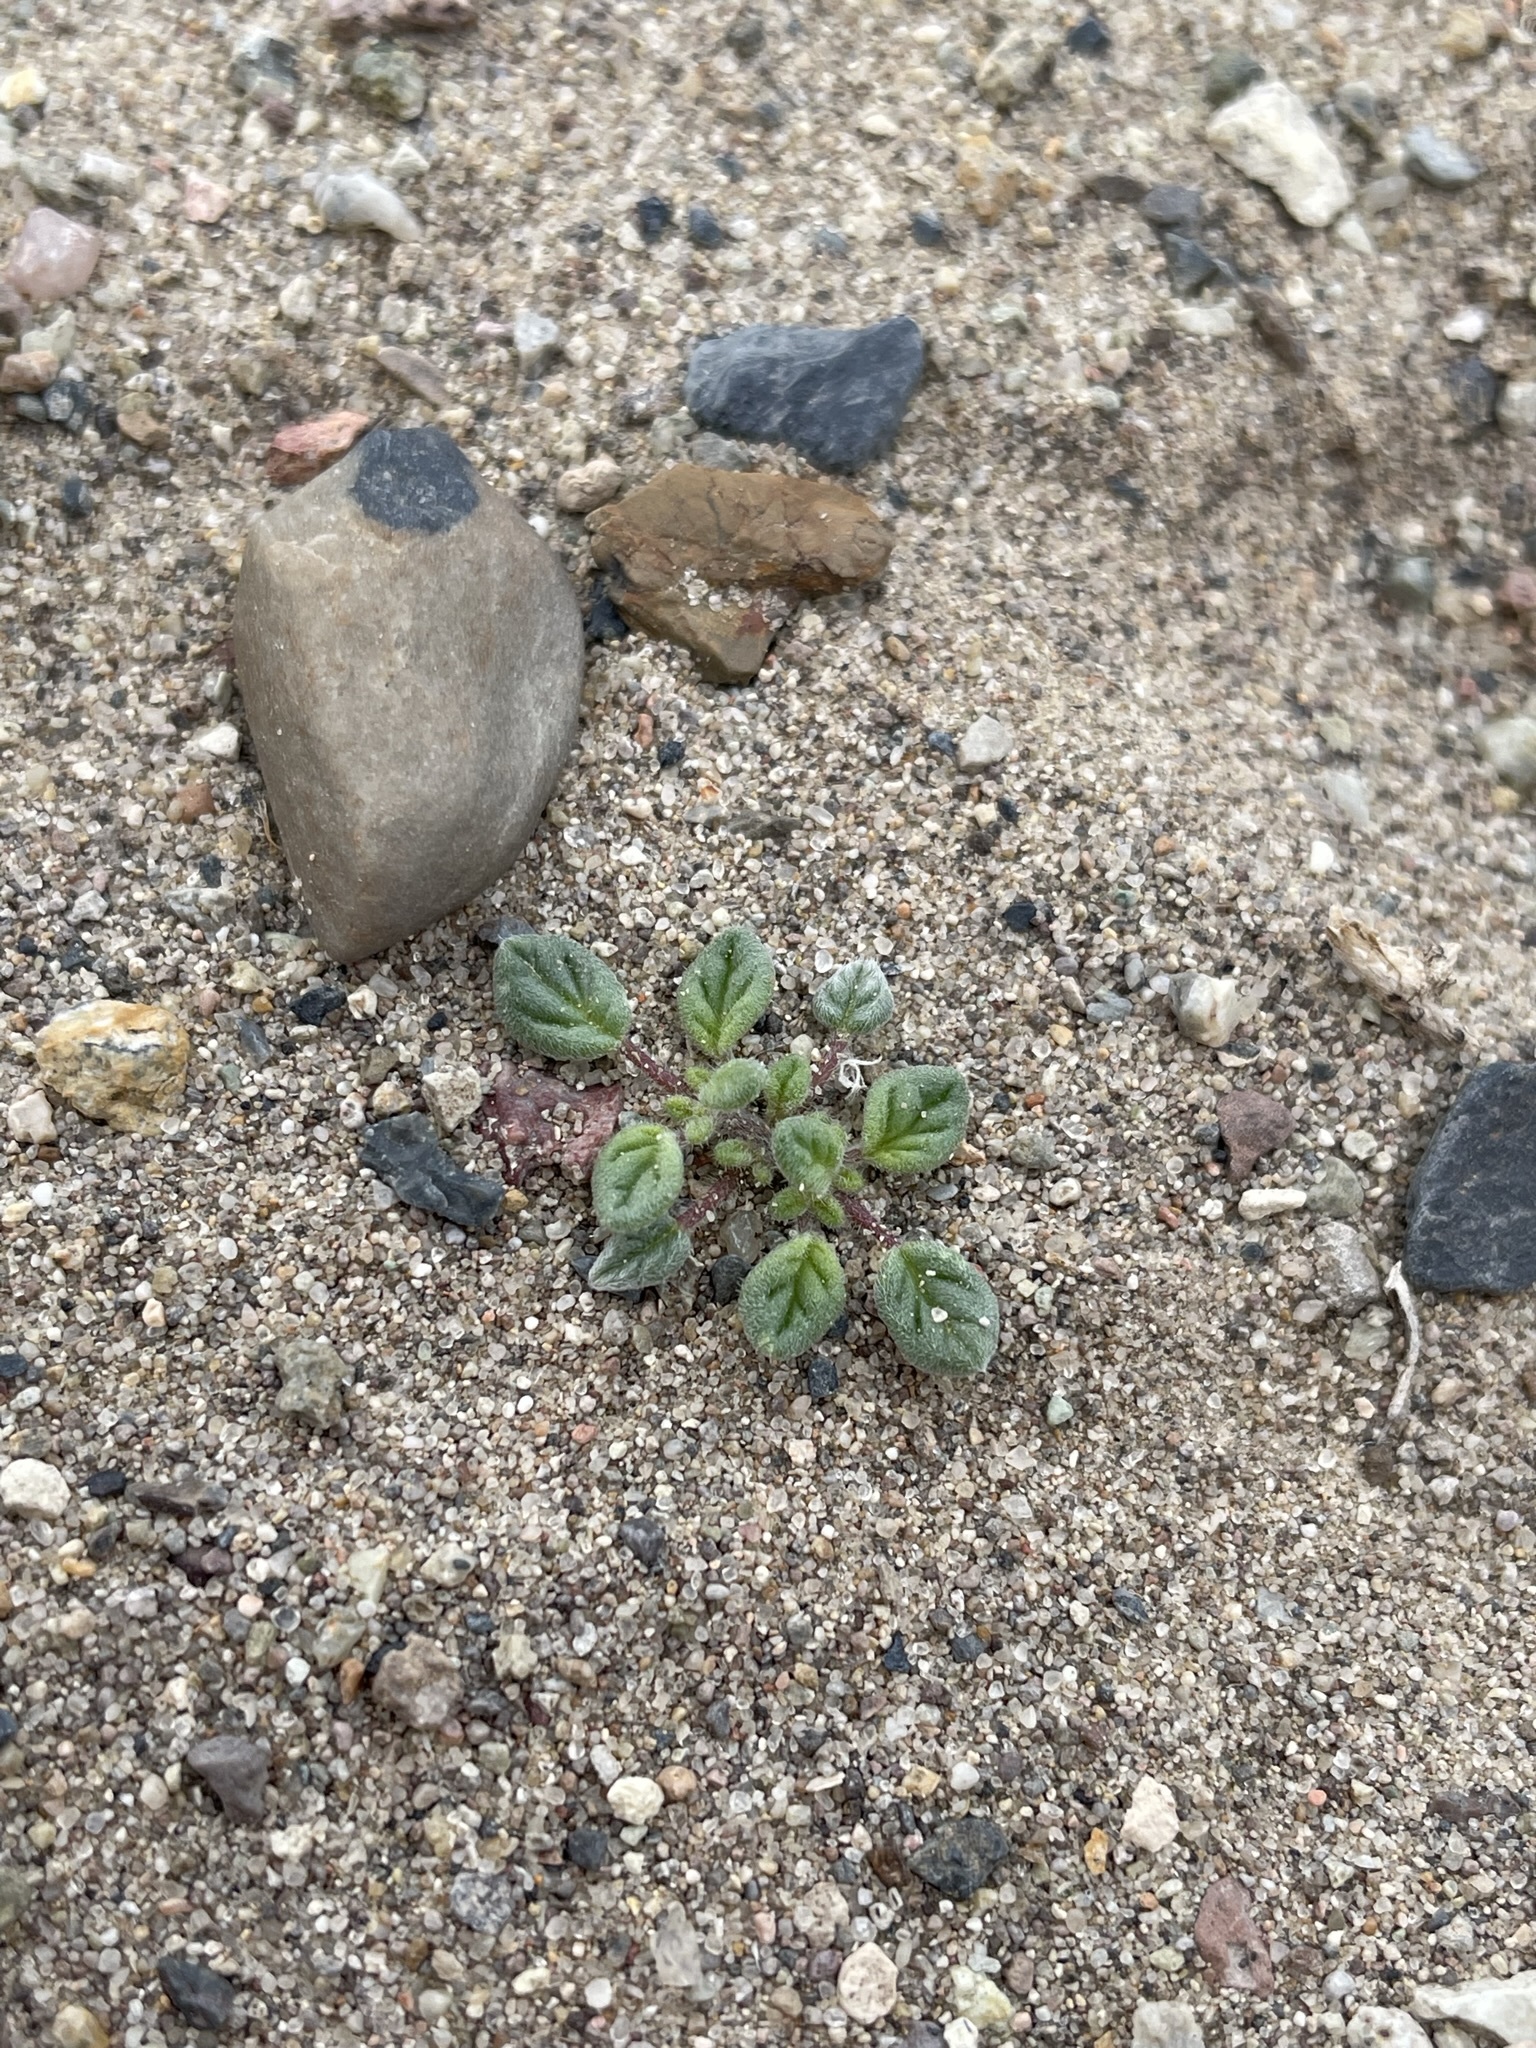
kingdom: Plantae
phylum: Tracheophyta
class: Magnoliopsida
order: Boraginales
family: Ehretiaceae
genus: Tiquilia
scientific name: Tiquilia nuttallii
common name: Rosette tiquilia
